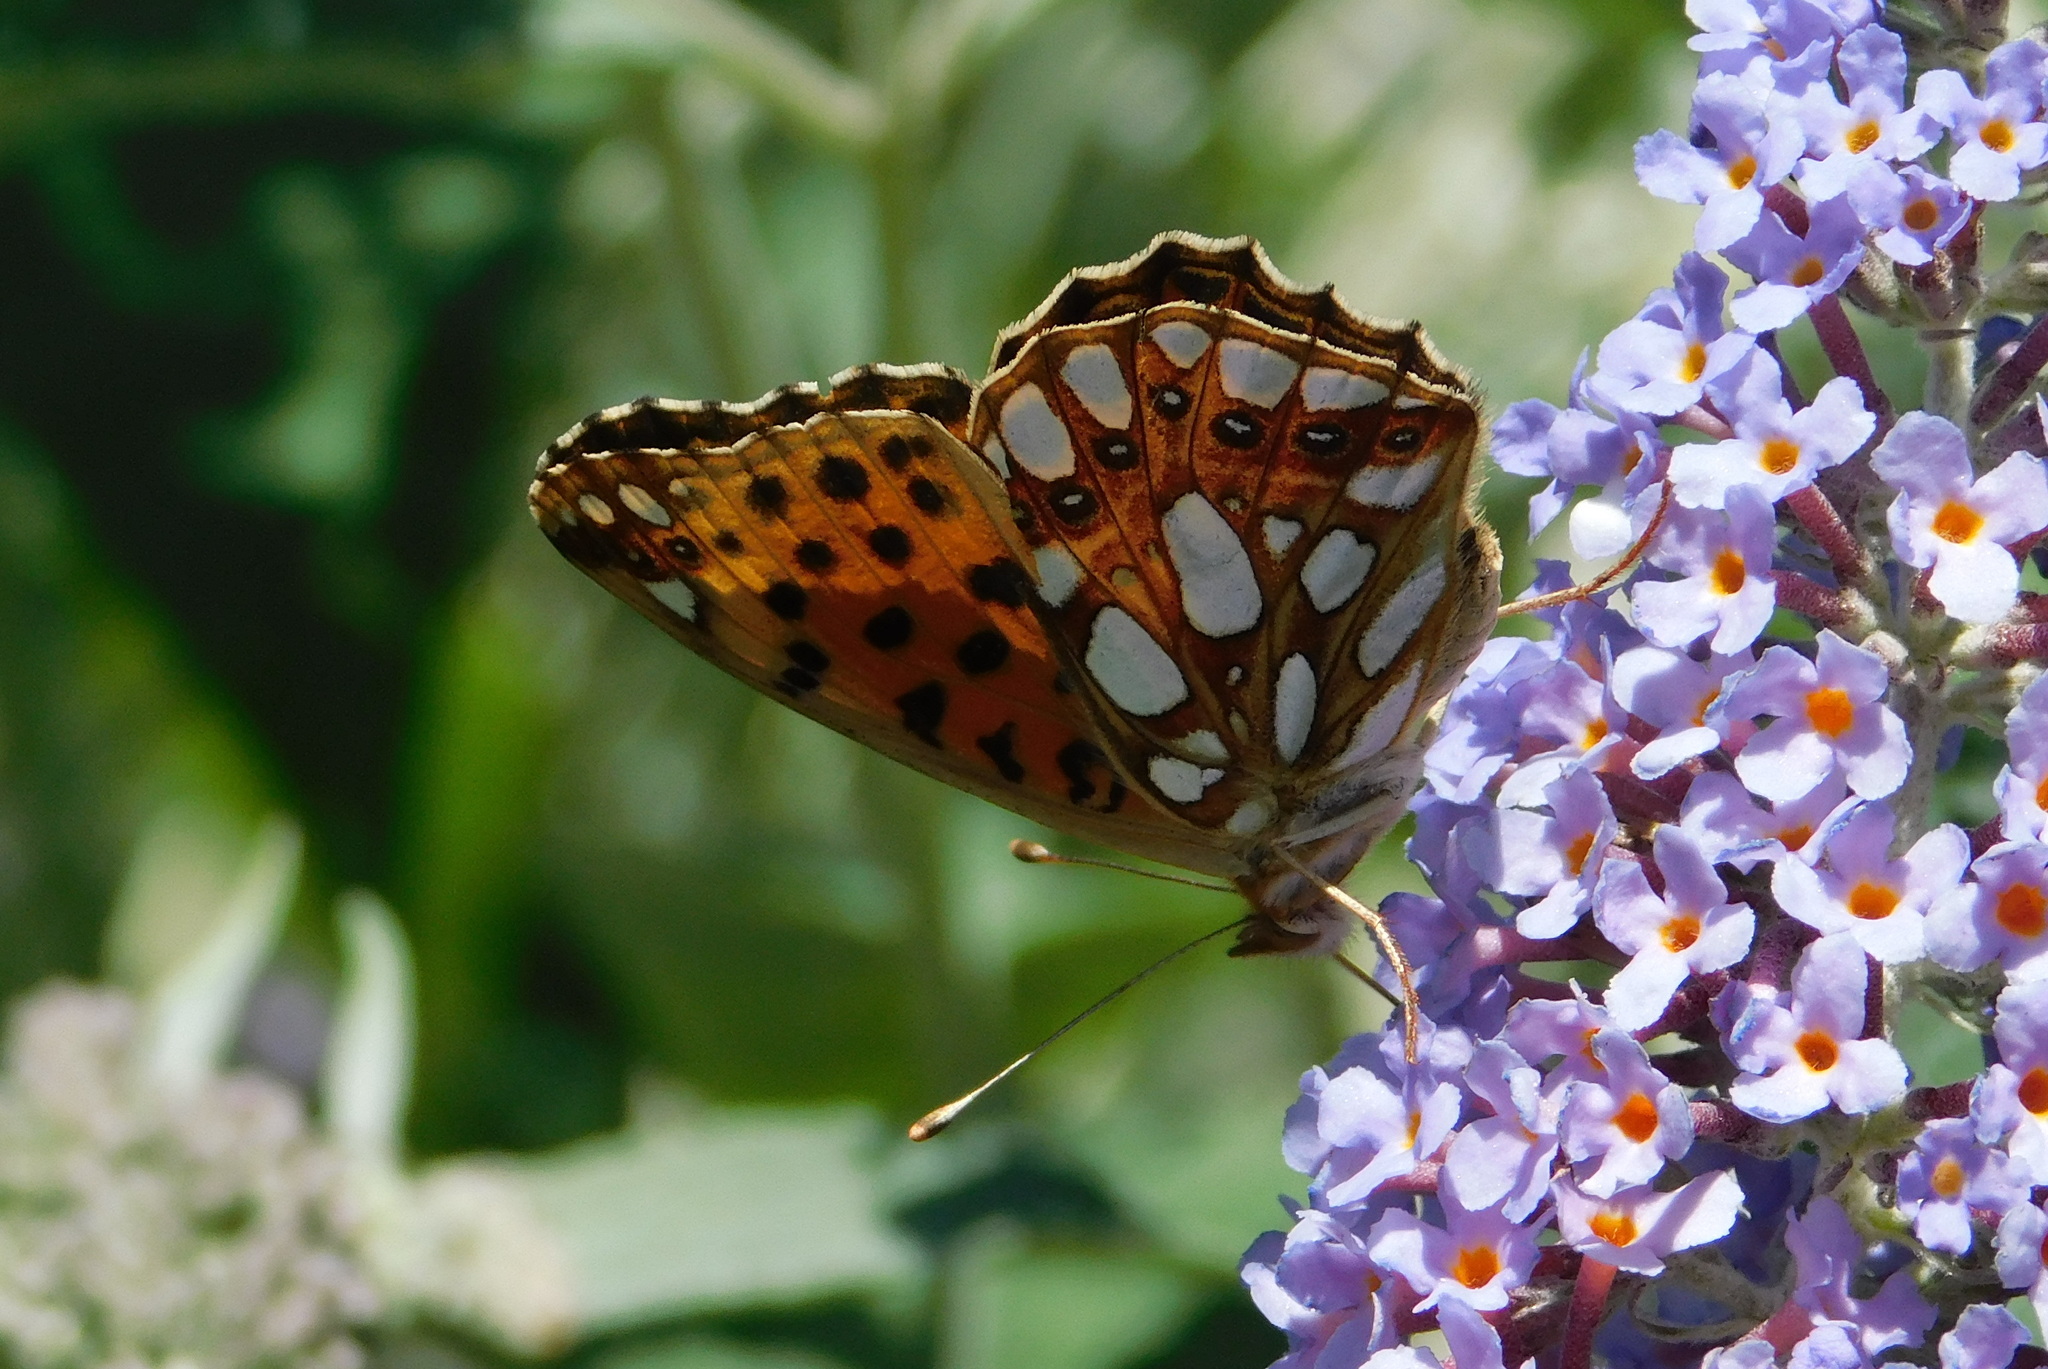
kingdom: Animalia
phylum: Arthropoda
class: Insecta
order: Lepidoptera
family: Nymphalidae
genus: Issoria
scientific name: Issoria lathonia
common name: Queen of spain fritillary
